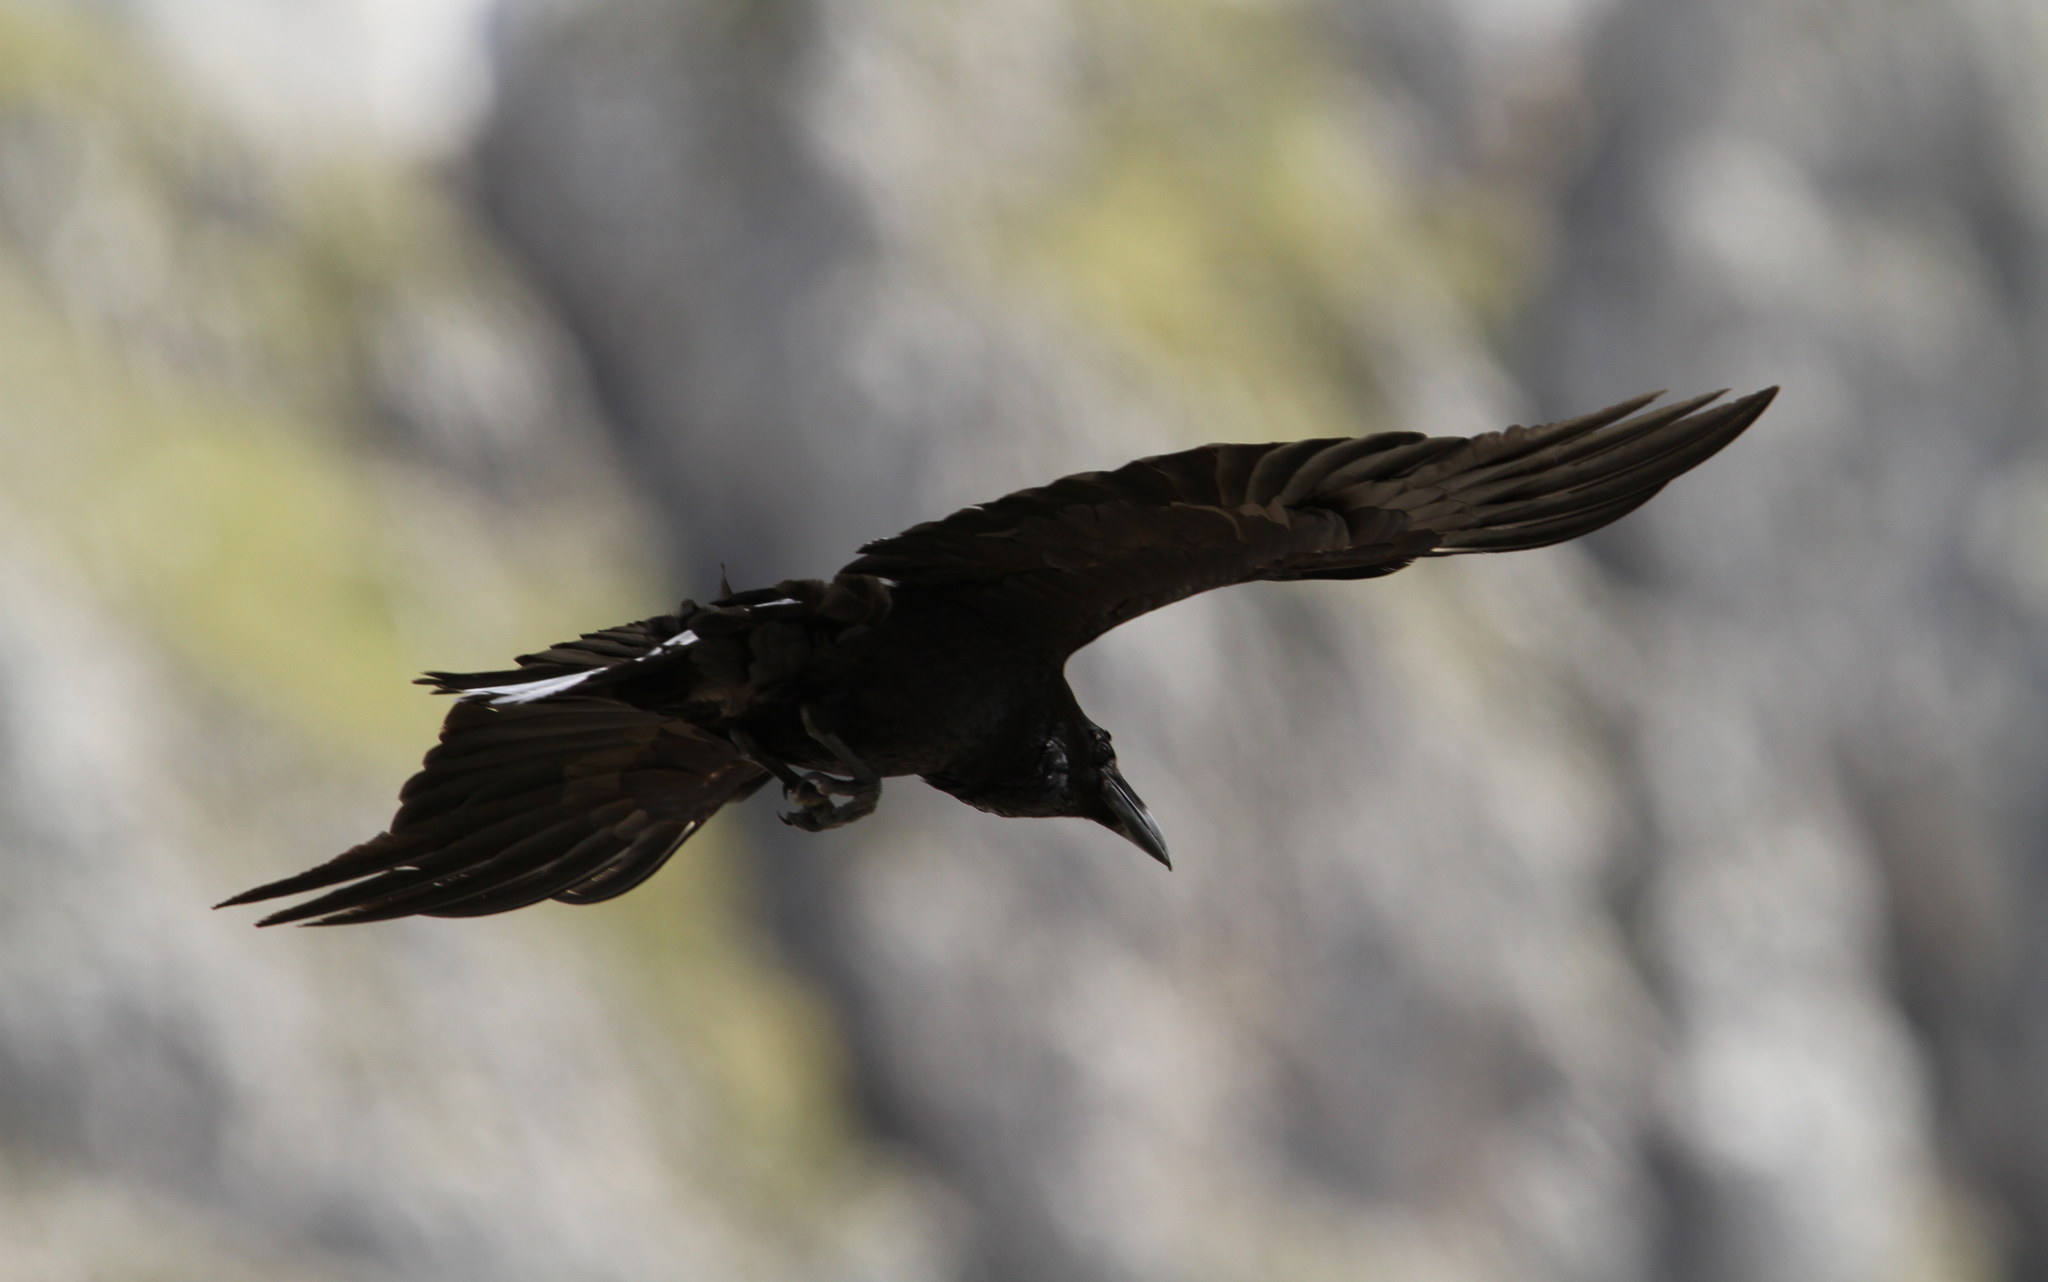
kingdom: Animalia
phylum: Chordata
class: Aves
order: Passeriformes
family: Corvidae
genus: Corvus
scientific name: Corvus corax
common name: Common raven
